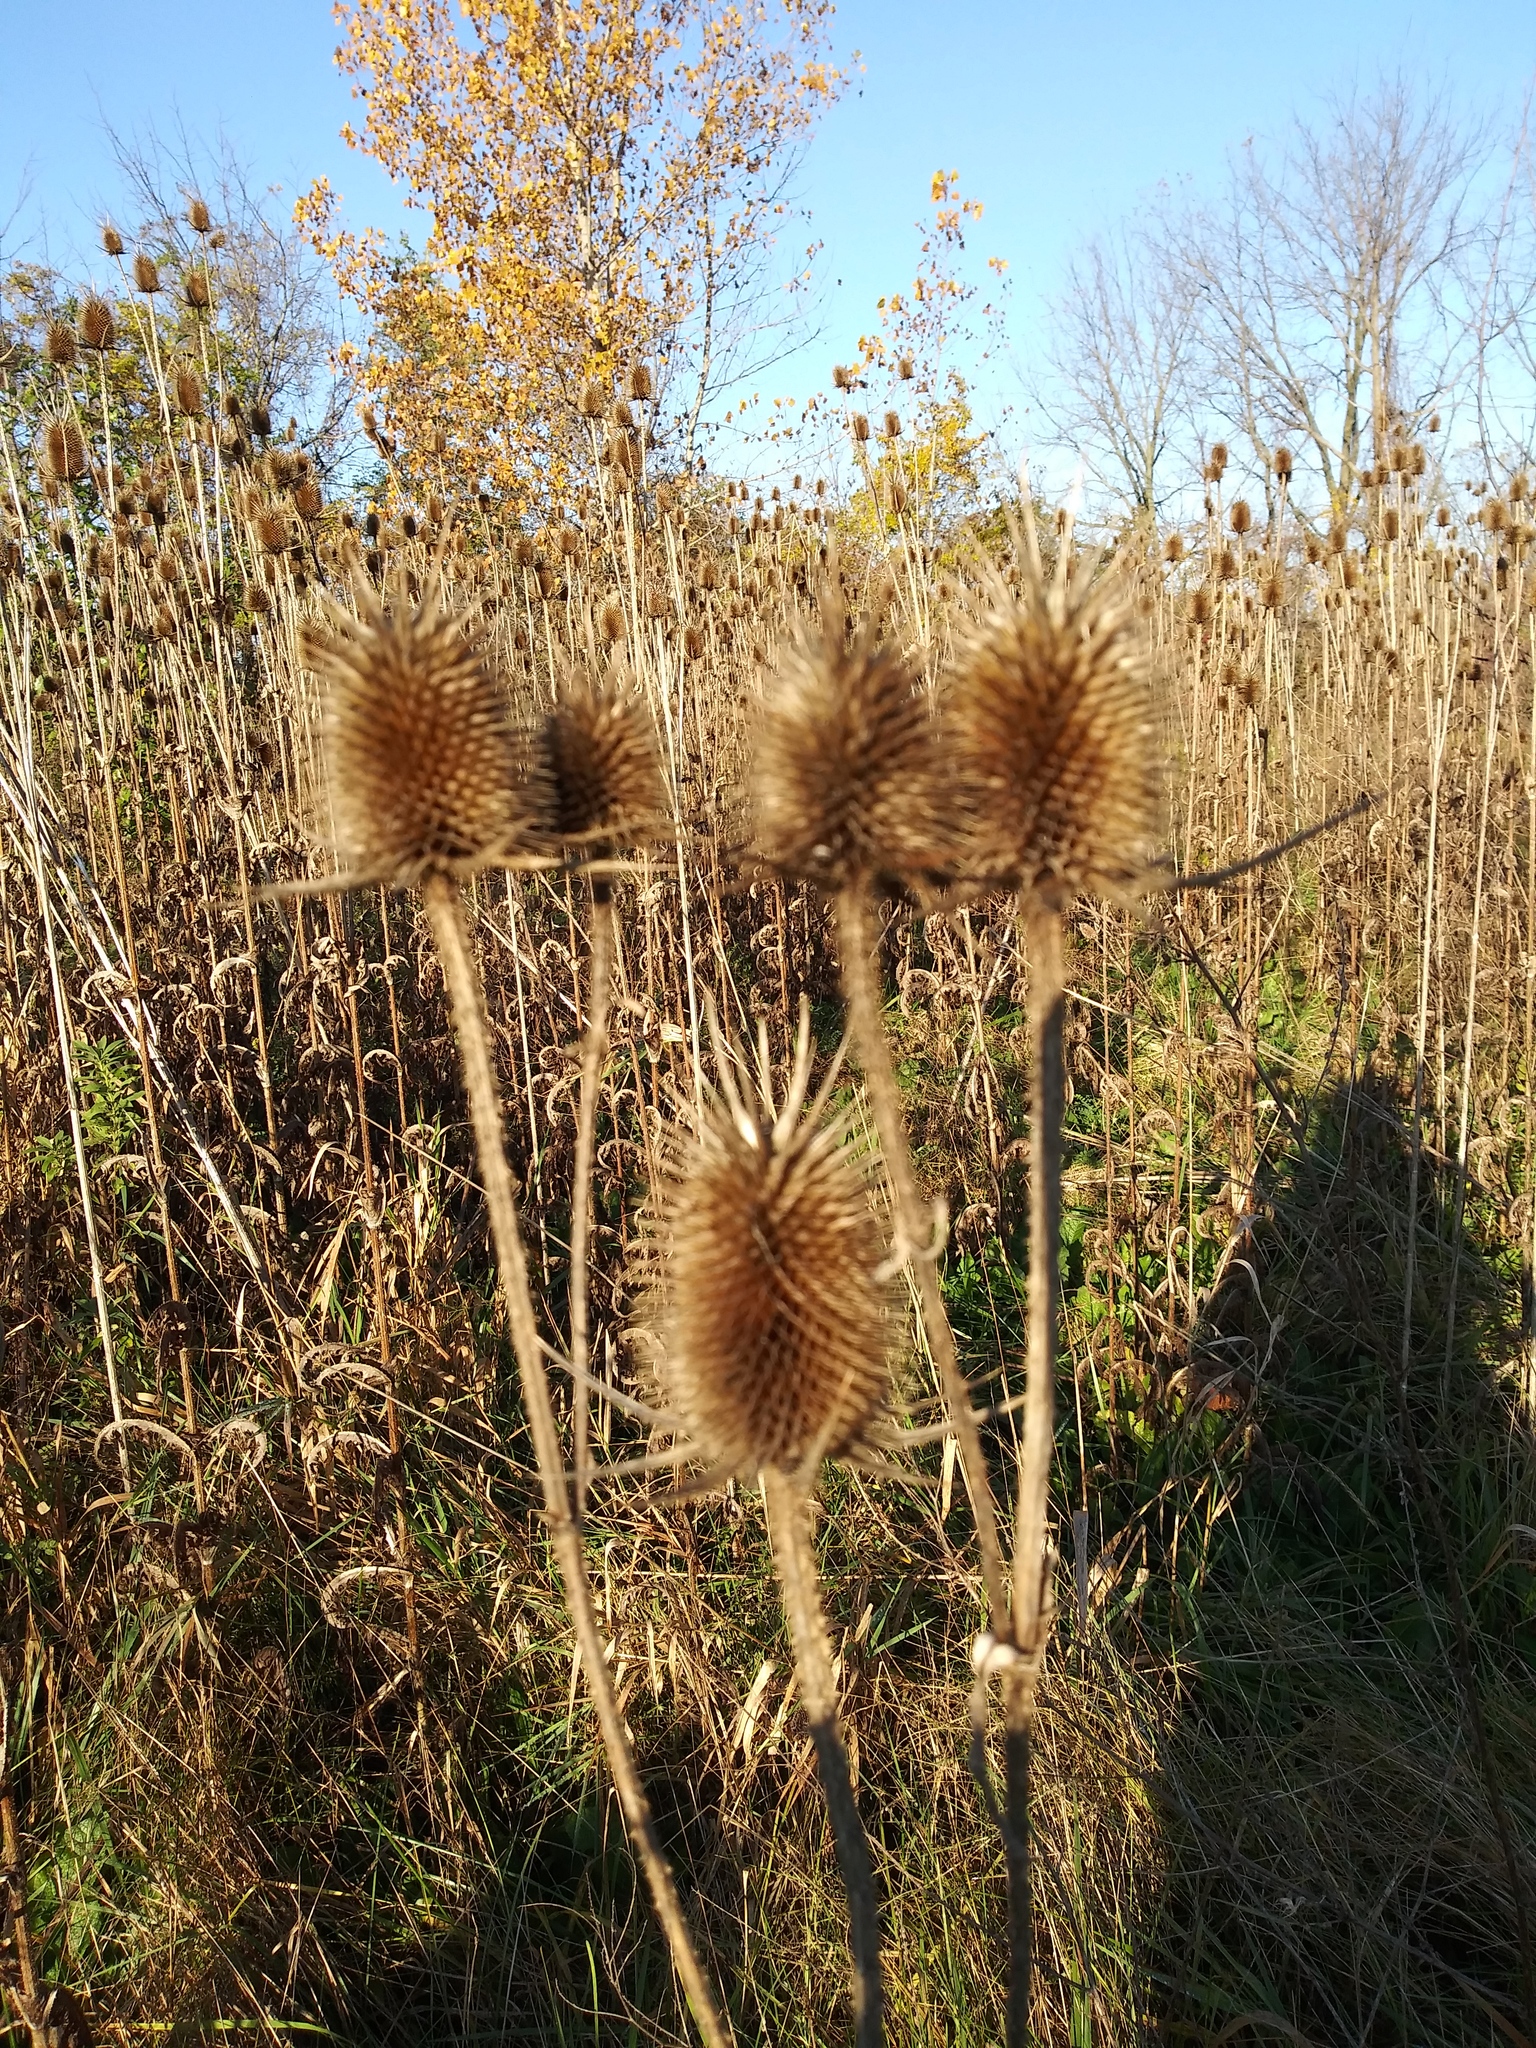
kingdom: Plantae
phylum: Tracheophyta
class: Magnoliopsida
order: Dipsacales
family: Caprifoliaceae
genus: Dipsacus
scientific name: Dipsacus laciniatus
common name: Cut-leaved teasel
